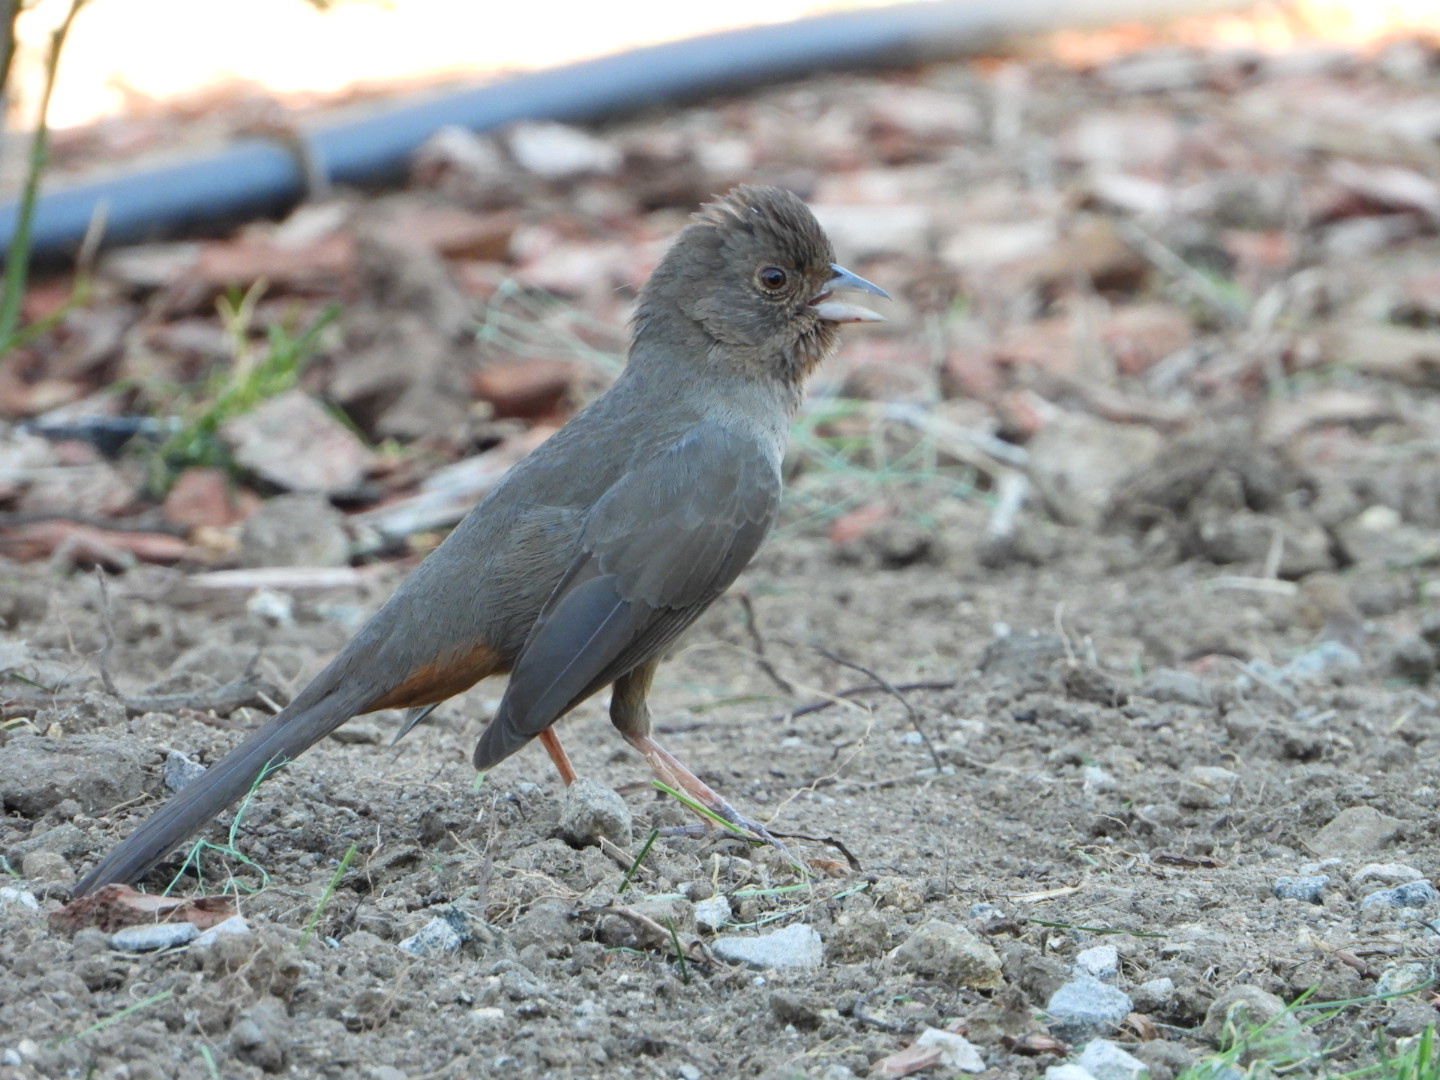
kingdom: Animalia
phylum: Chordata
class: Aves
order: Passeriformes
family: Passerellidae
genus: Melozone
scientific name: Melozone crissalis
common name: California towhee
